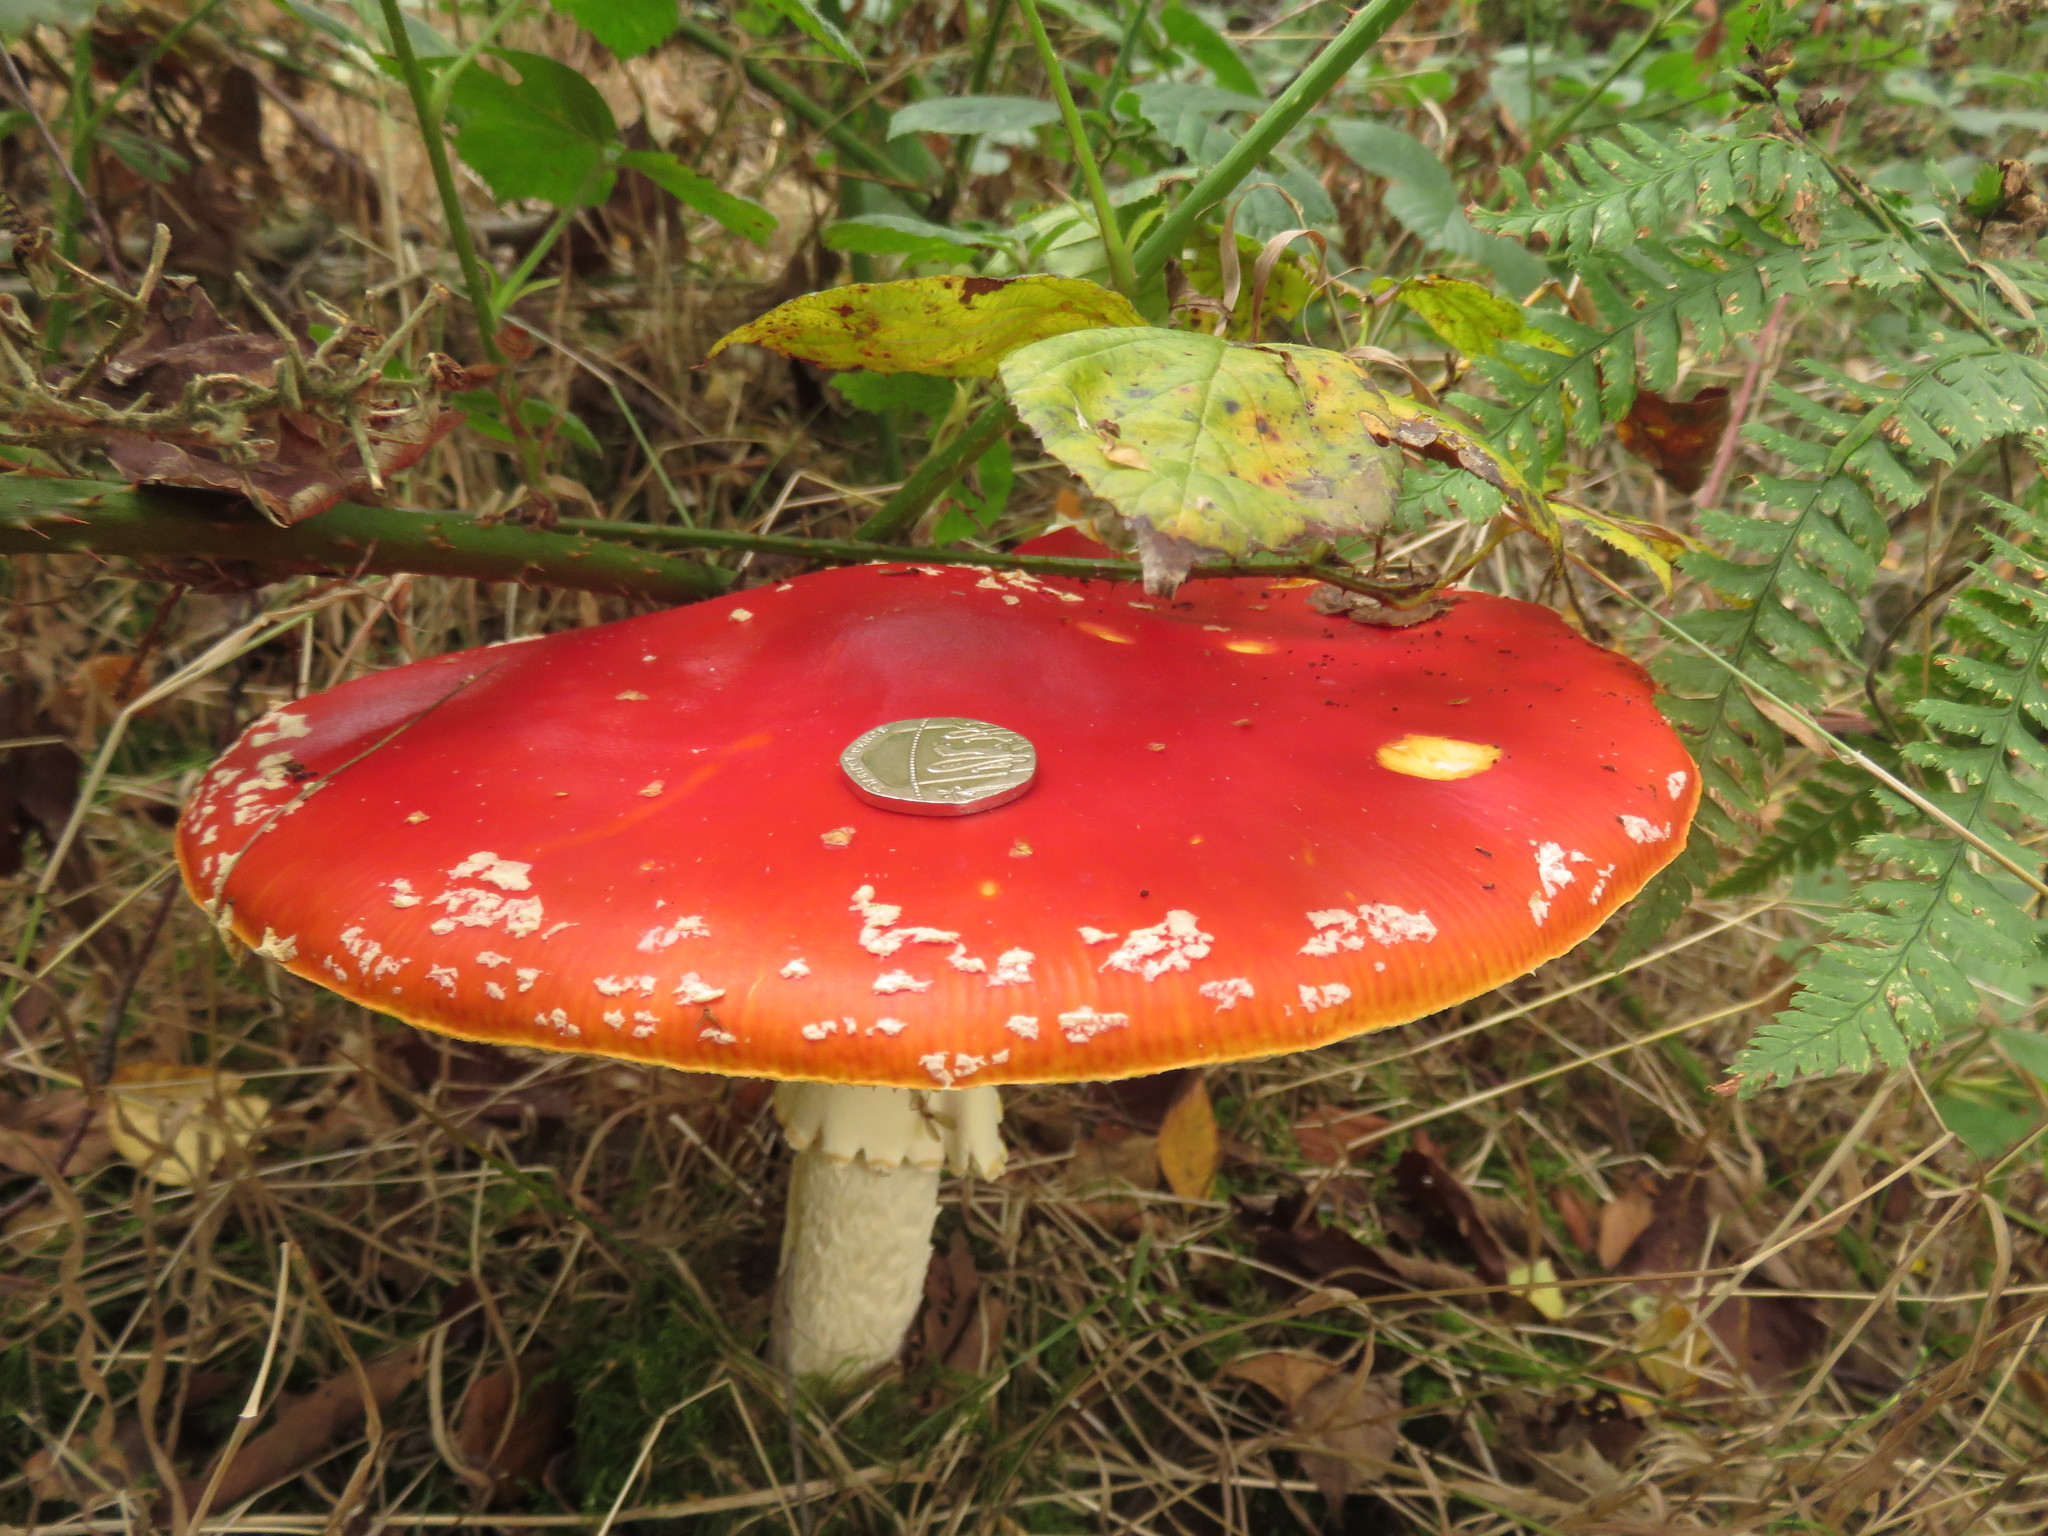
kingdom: Fungi
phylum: Basidiomycota
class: Agaricomycetes
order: Agaricales
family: Amanitaceae
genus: Amanita
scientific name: Amanita muscaria
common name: Fly agaric
